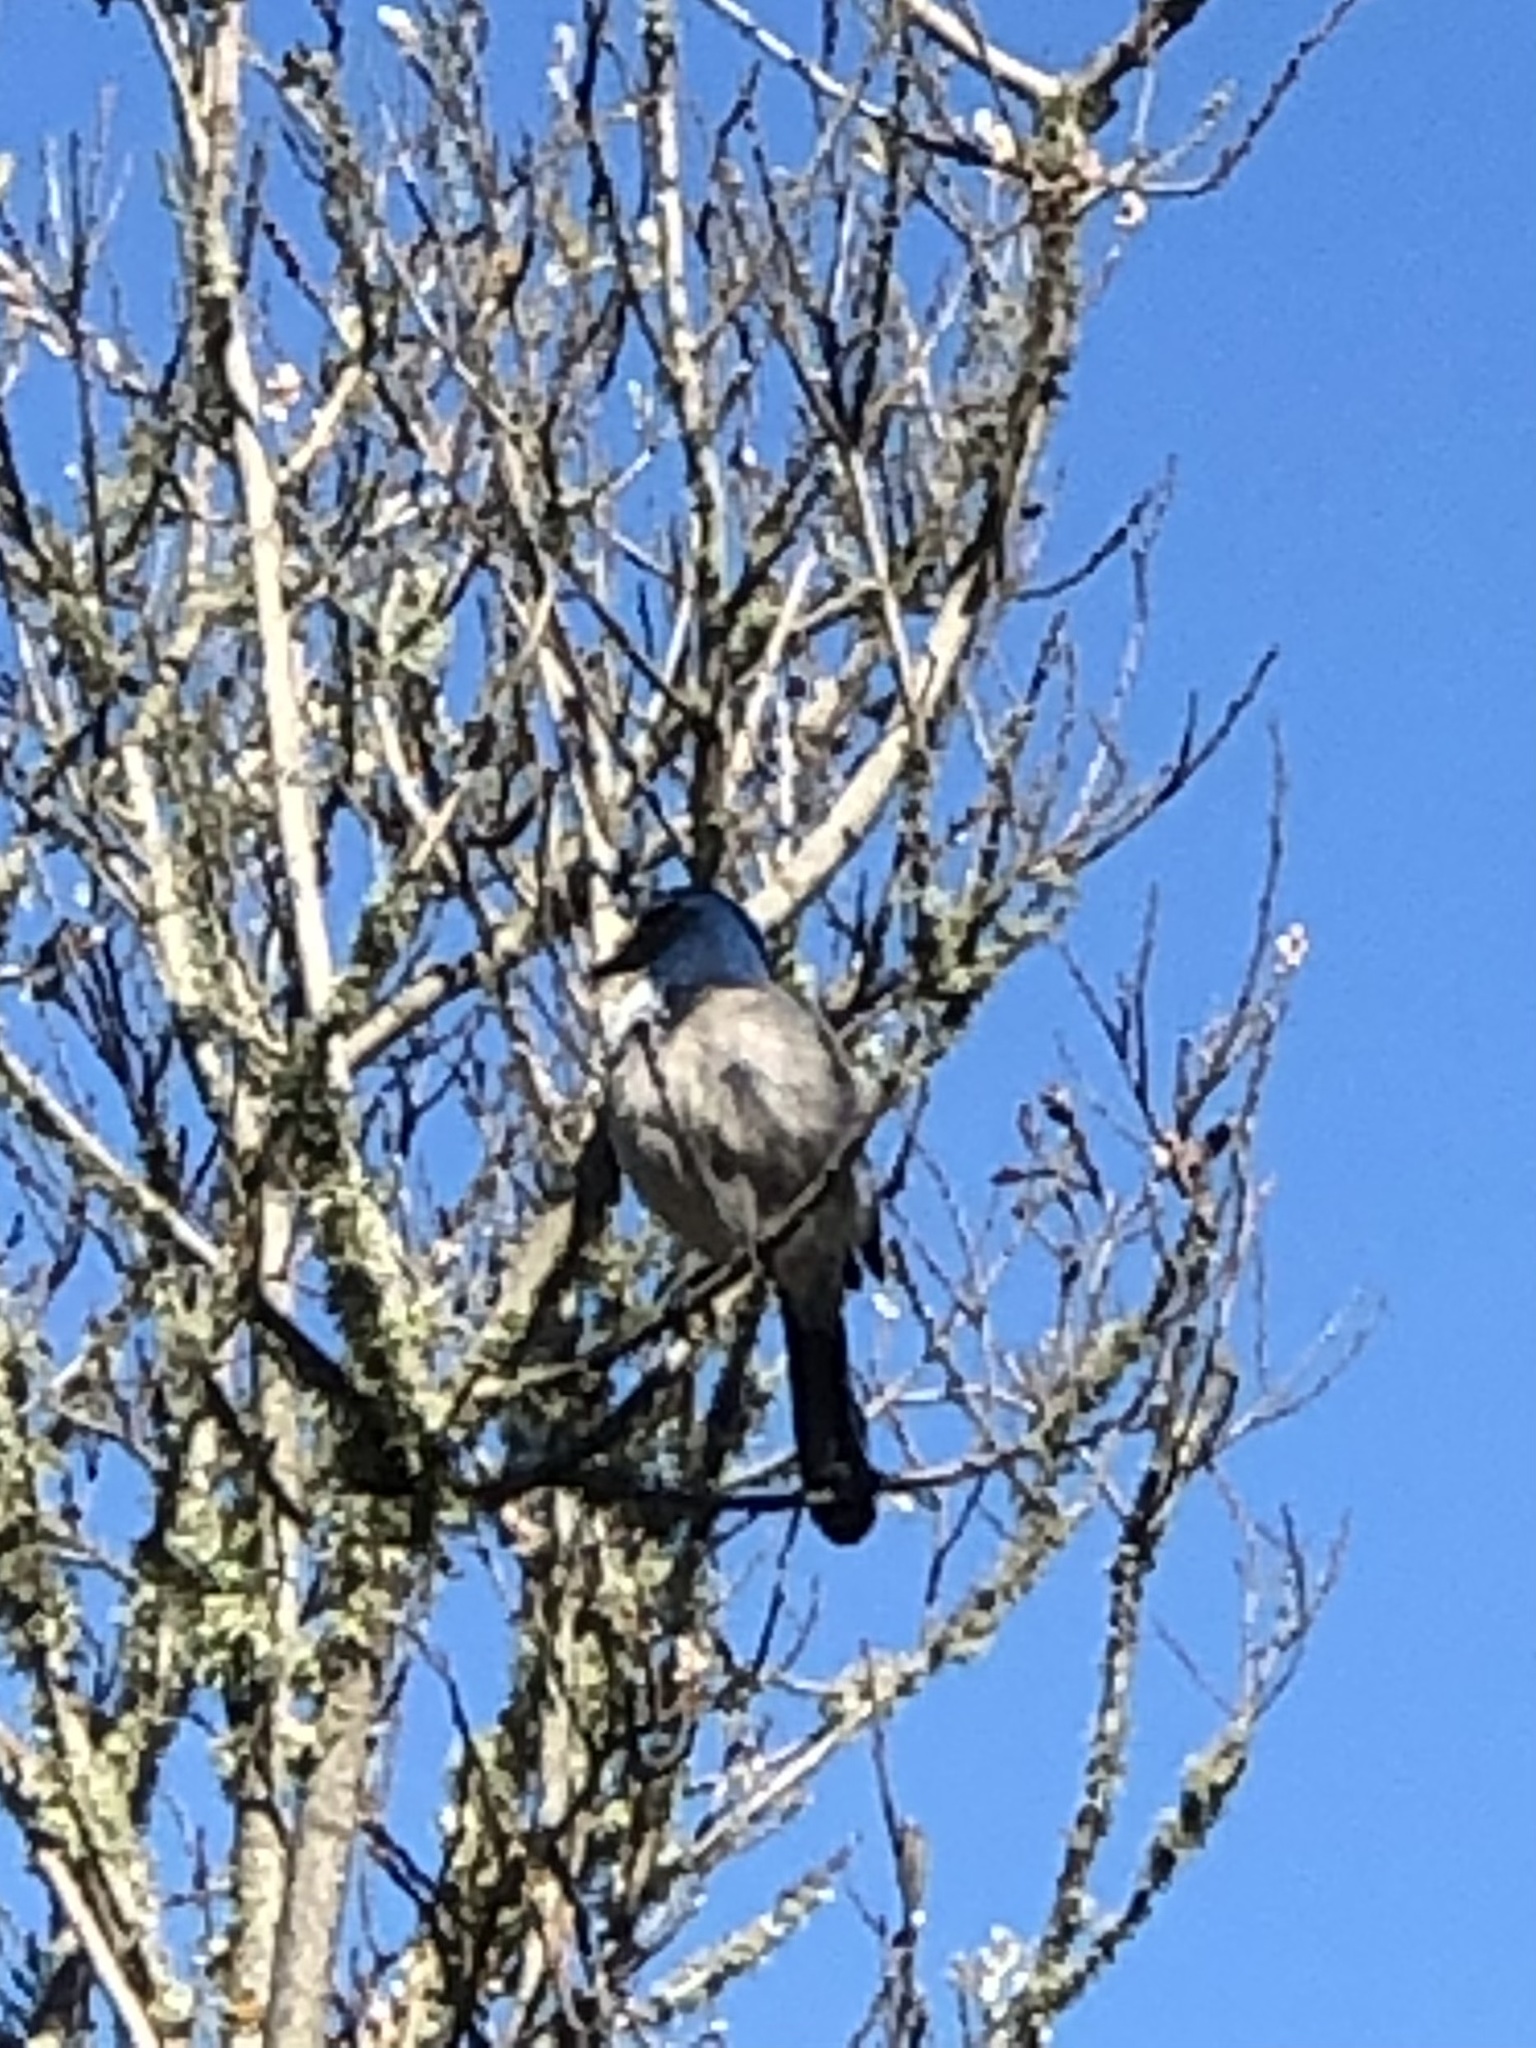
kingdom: Animalia
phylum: Chordata
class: Aves
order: Passeriformes
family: Corvidae
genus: Aphelocoma
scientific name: Aphelocoma californica
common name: California scrub-jay
